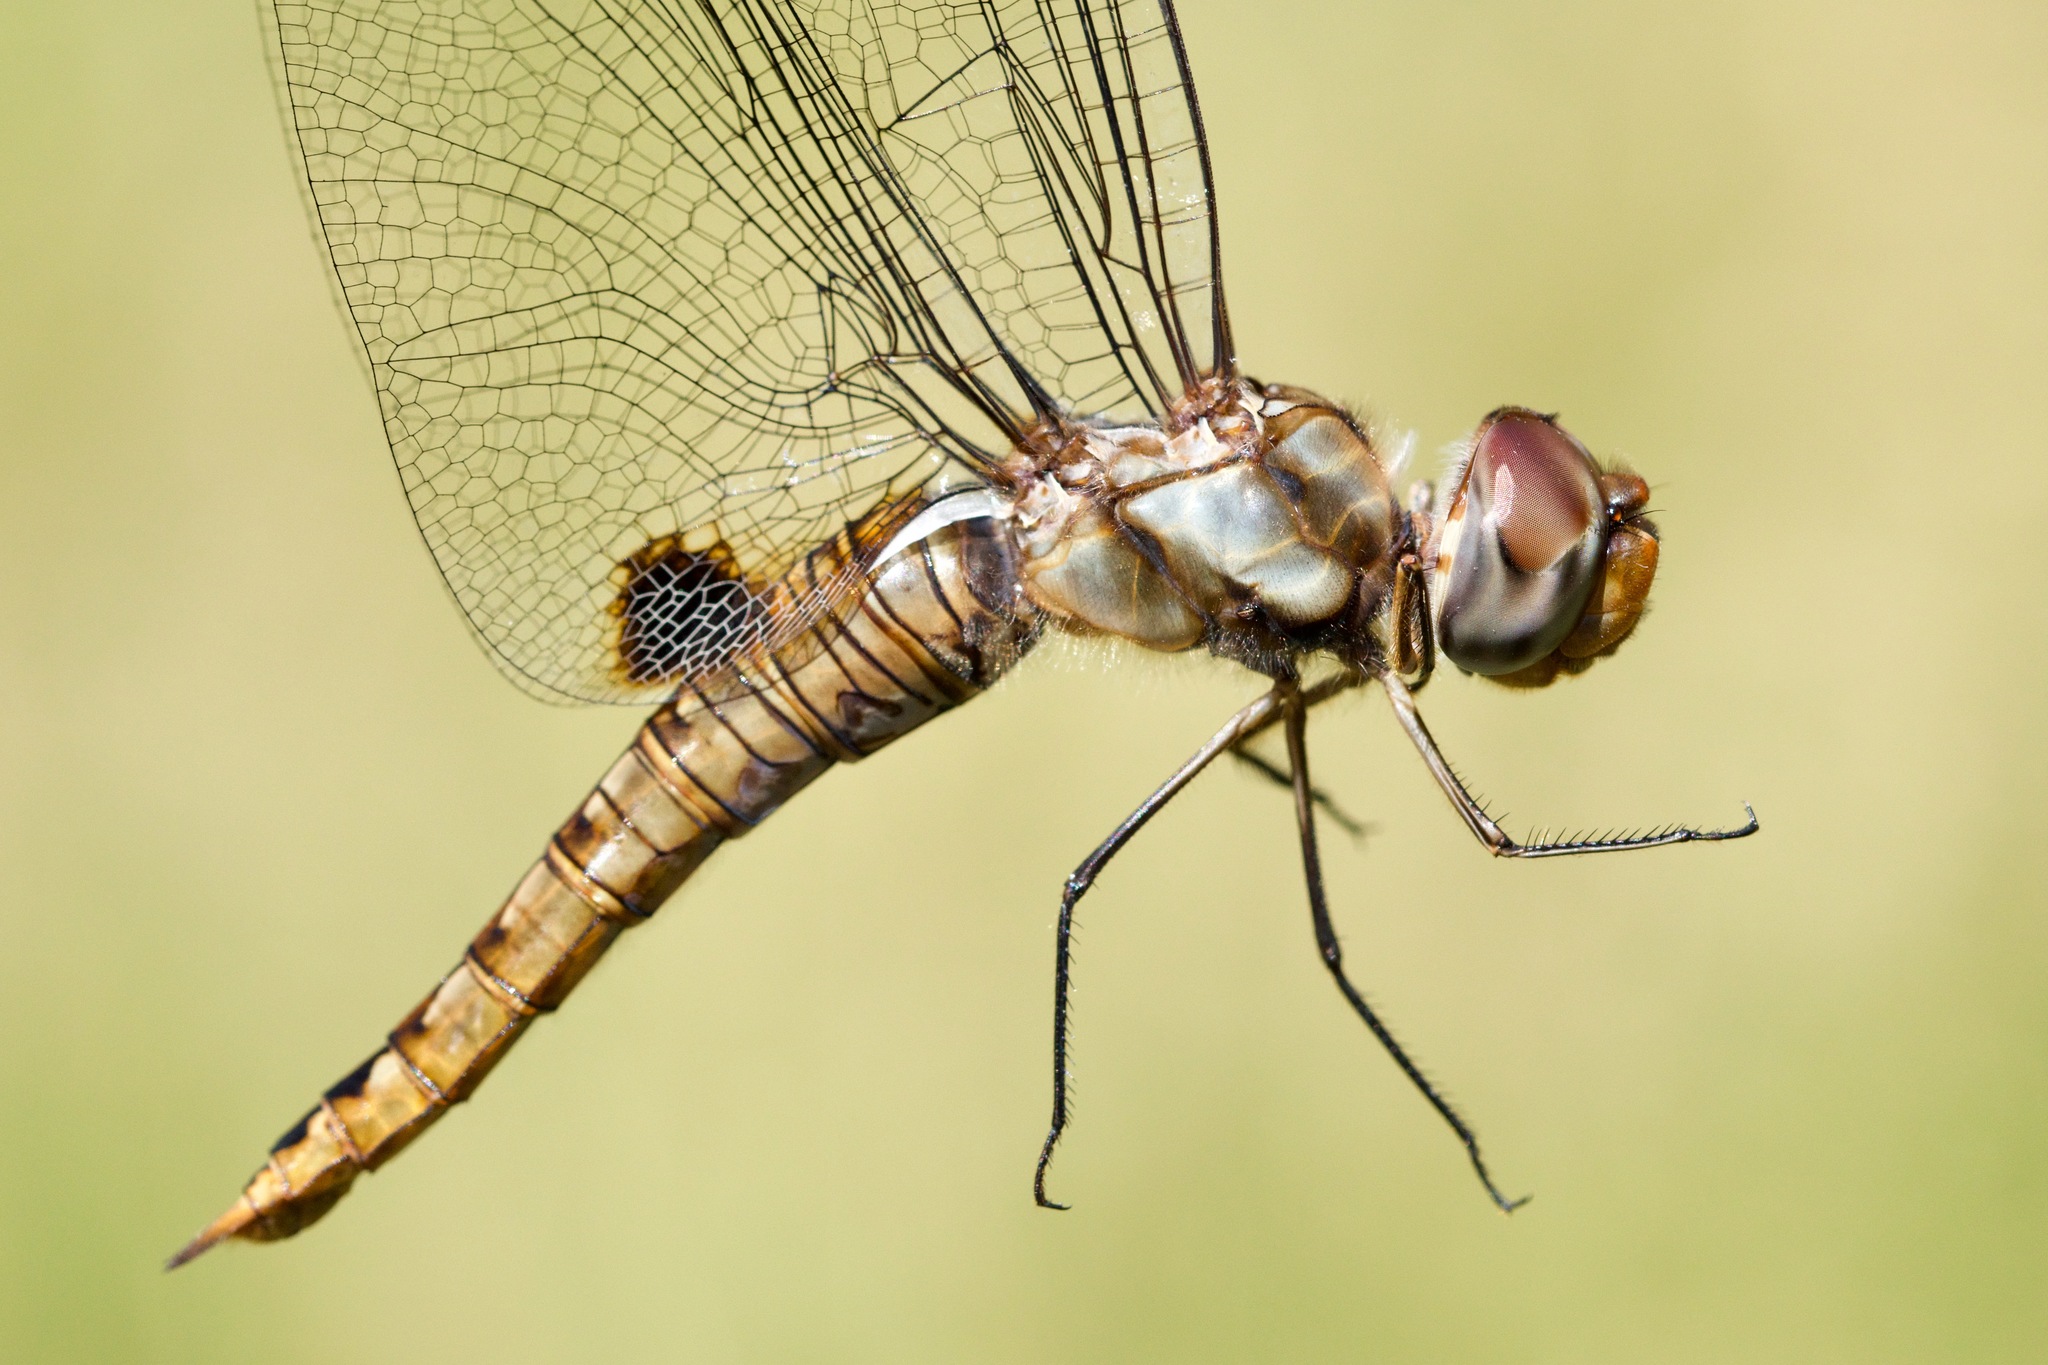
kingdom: Animalia
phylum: Arthropoda
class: Insecta
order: Odonata
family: Libellulidae
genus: Pantala
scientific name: Pantala hymenaea
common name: Spot-winged glider
